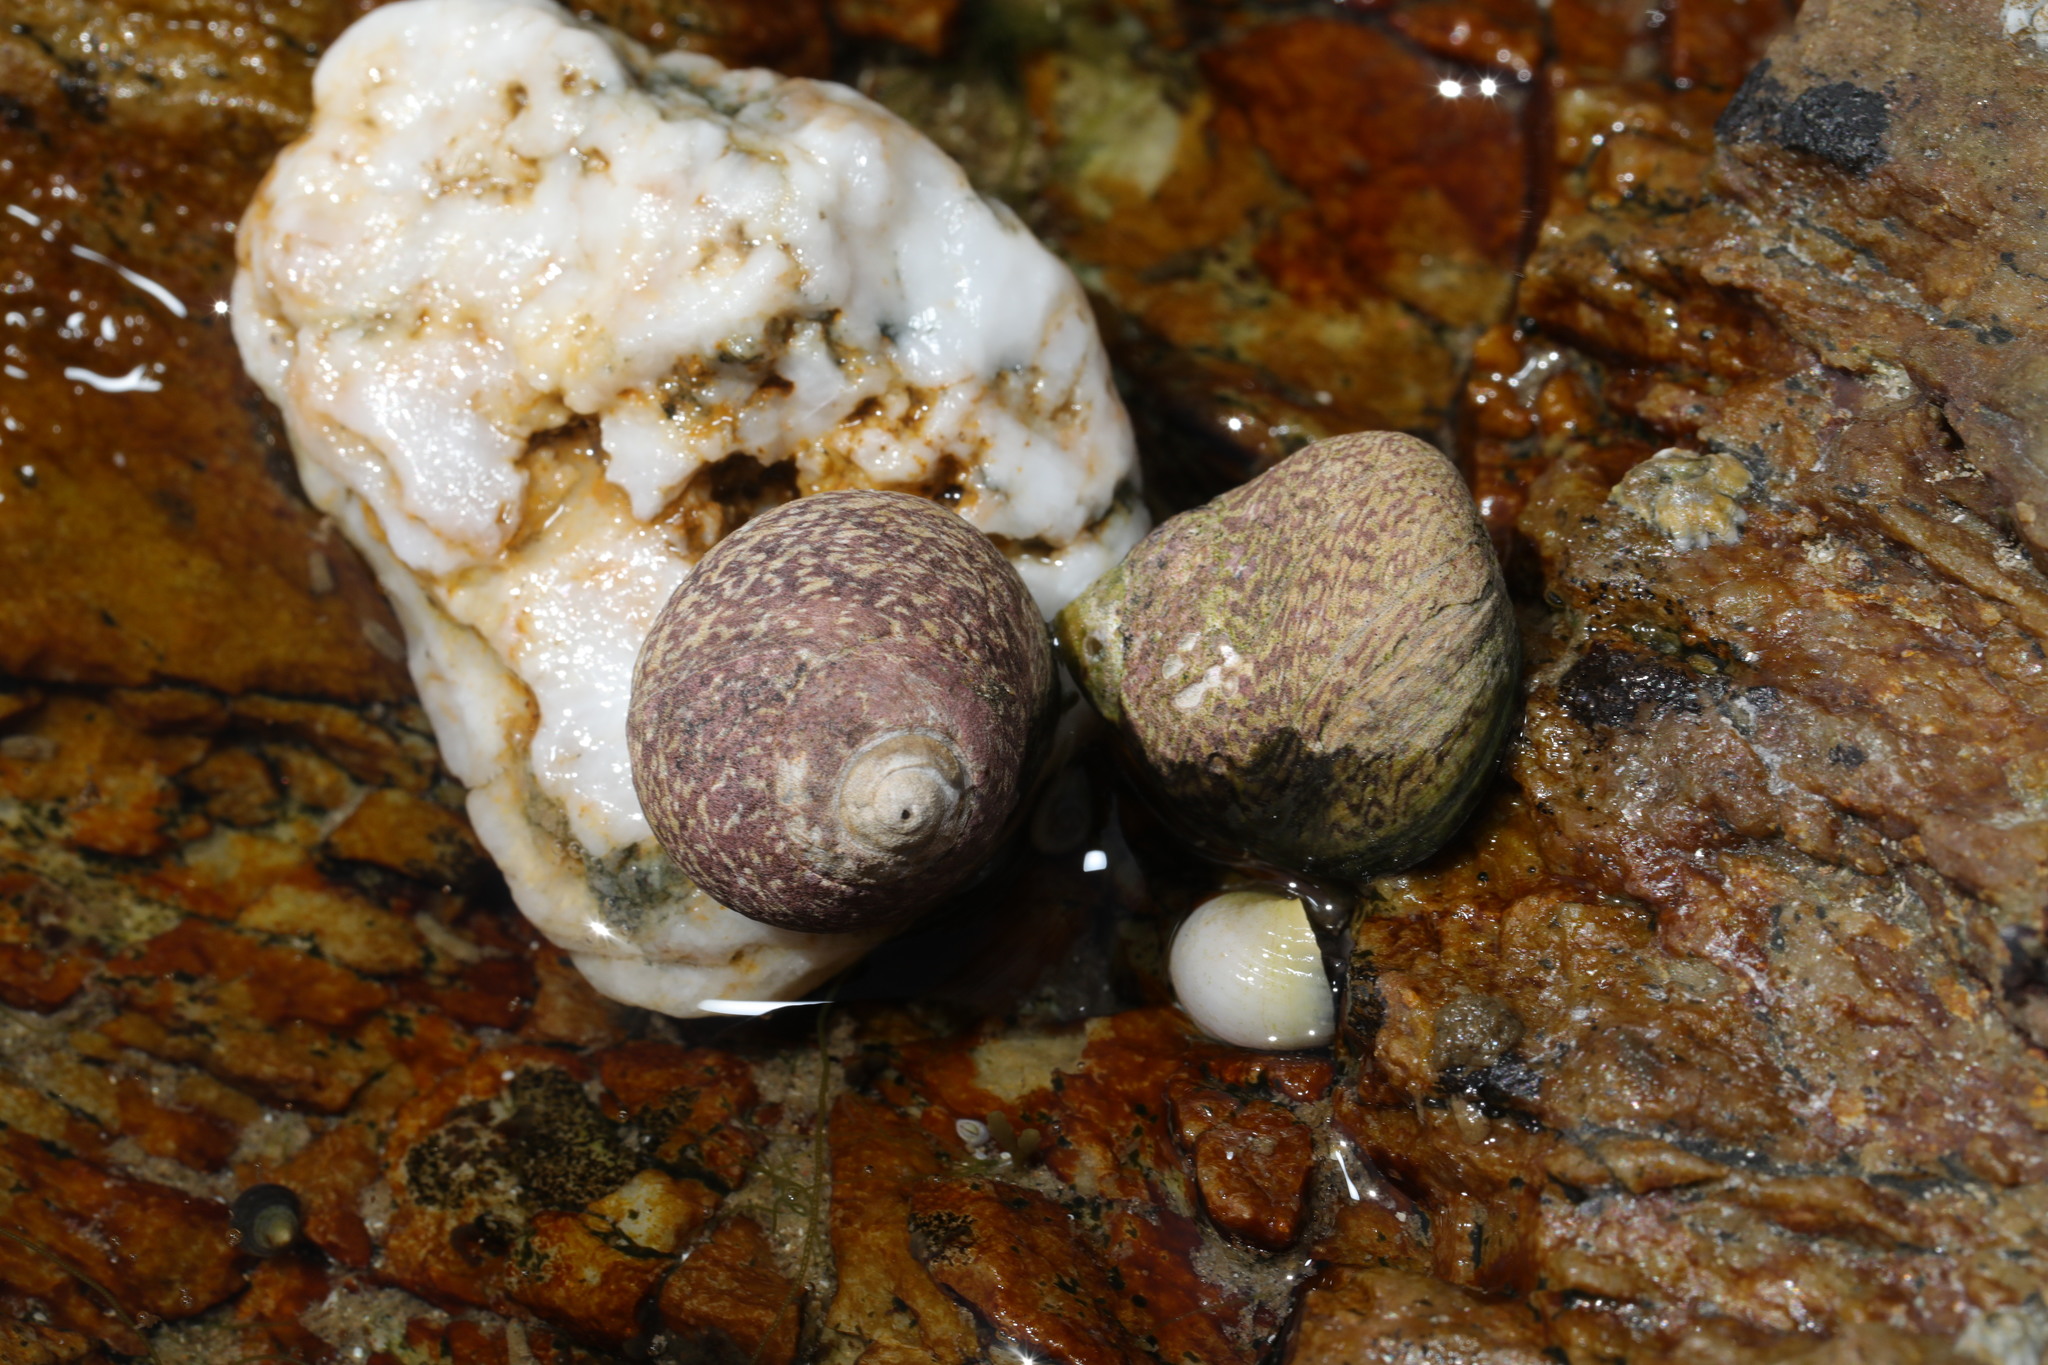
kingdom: Animalia
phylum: Mollusca
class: Gastropoda
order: Trochida
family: Trochidae
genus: Phorcus
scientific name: Phorcus lineatus
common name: Toothed top shell
